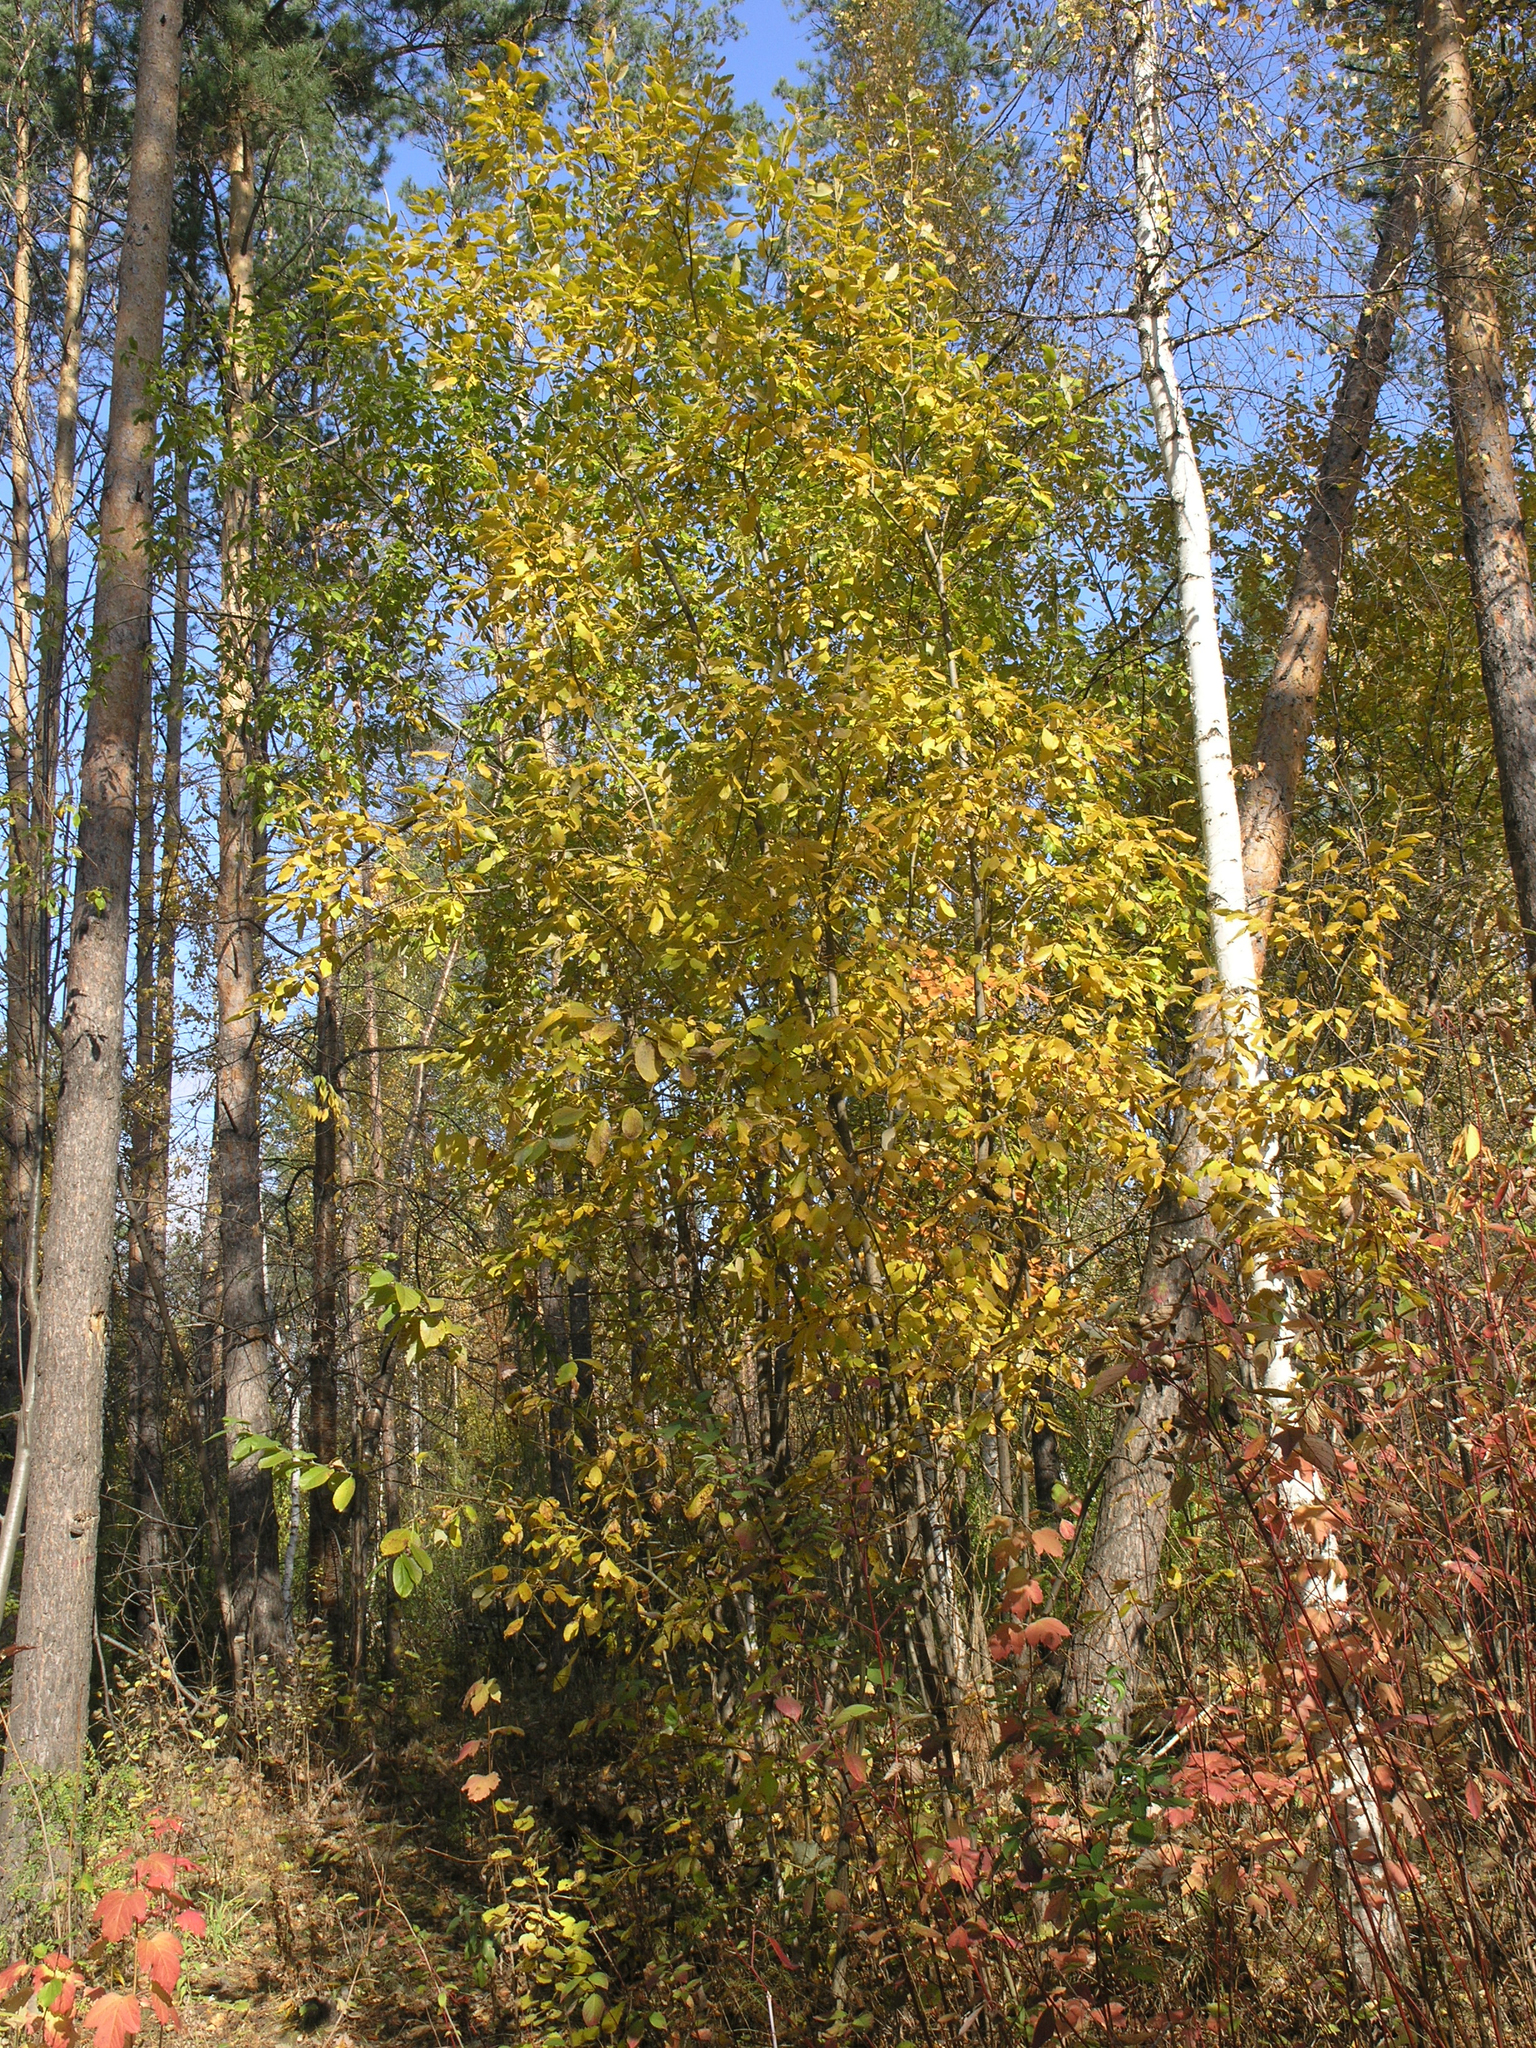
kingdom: Plantae
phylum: Tracheophyta
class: Magnoliopsida
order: Malpighiales
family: Salicaceae
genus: Salix
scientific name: Salix caprea
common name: Goat willow
